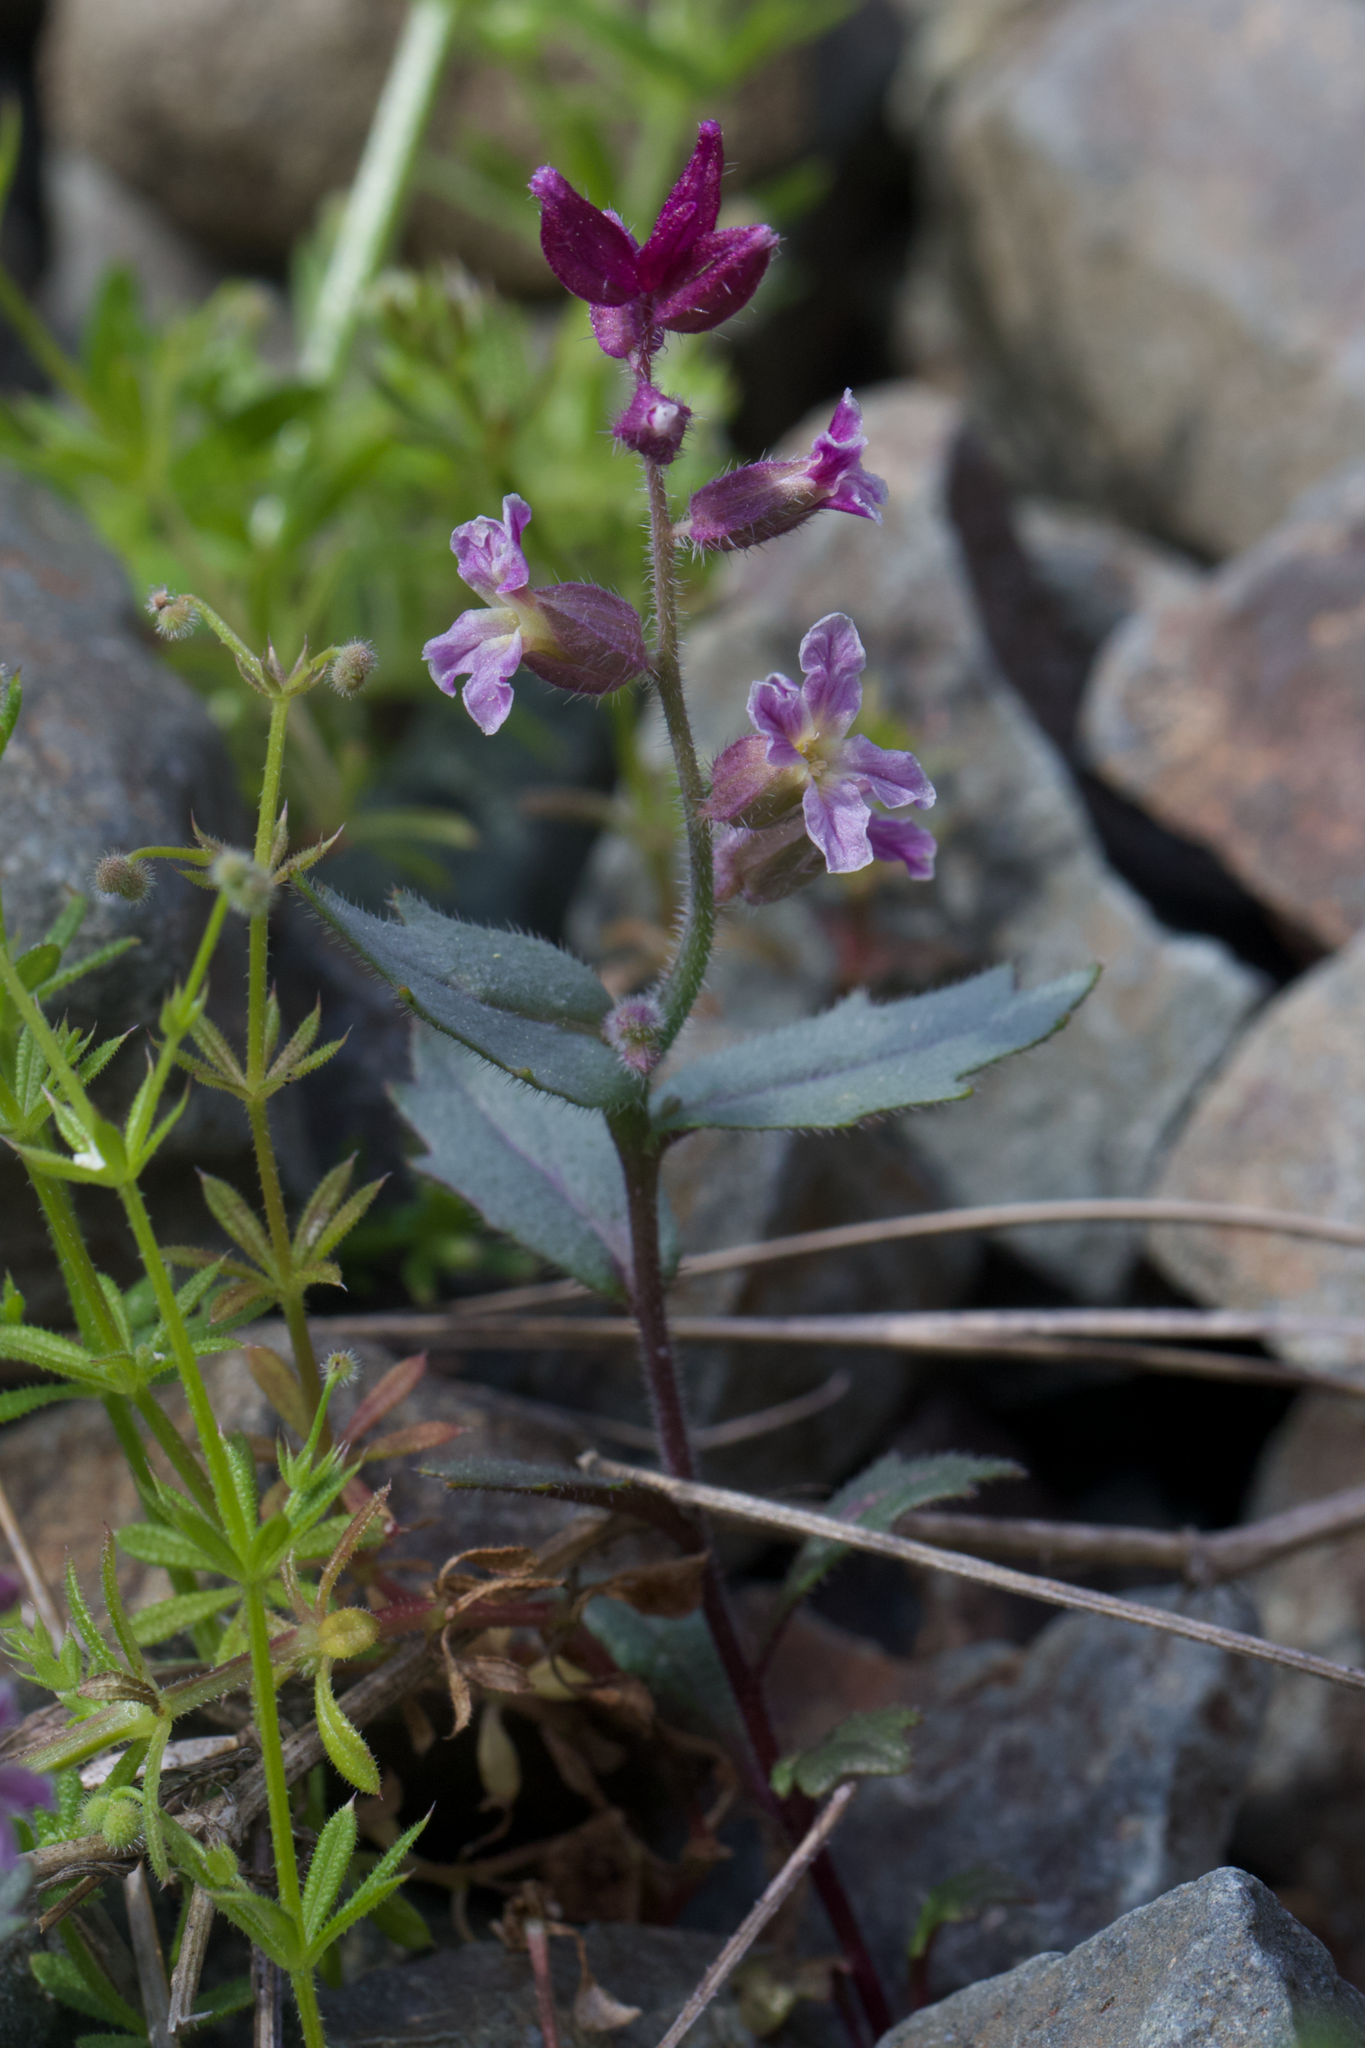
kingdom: Plantae
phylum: Tracheophyta
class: Magnoliopsida
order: Brassicales
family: Brassicaceae
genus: Streptanthus
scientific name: Streptanthus hispidus
